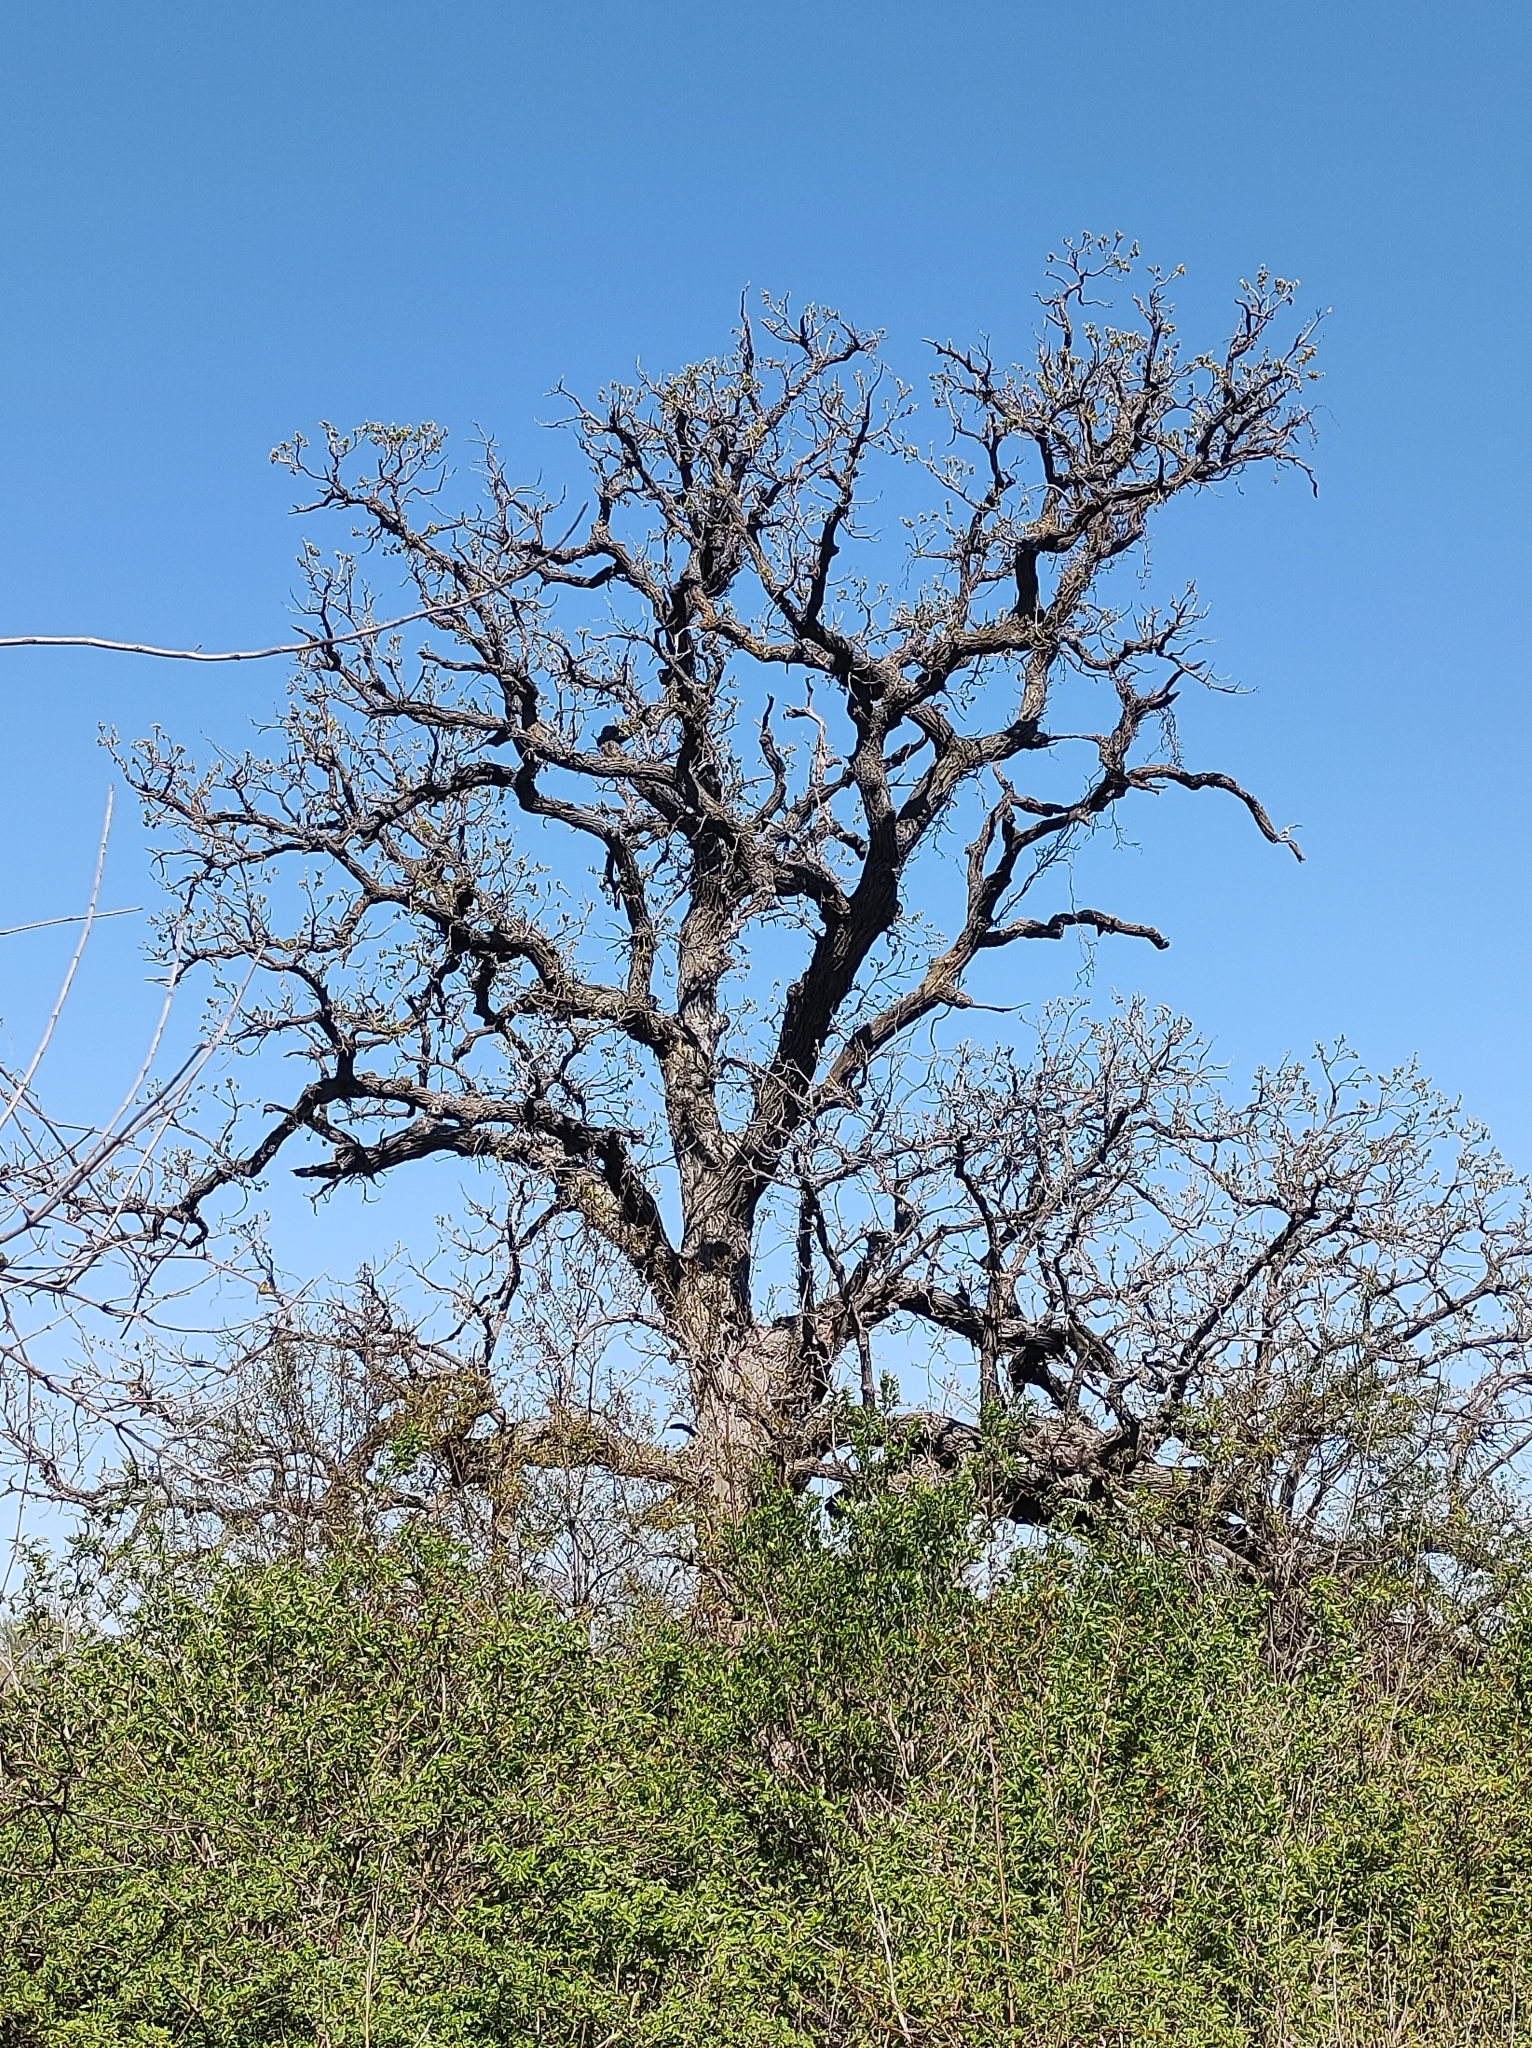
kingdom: Plantae
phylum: Tracheophyta
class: Magnoliopsida
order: Fagales
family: Fagaceae
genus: Quercus
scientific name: Quercus macrocarpa
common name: Bur oak
